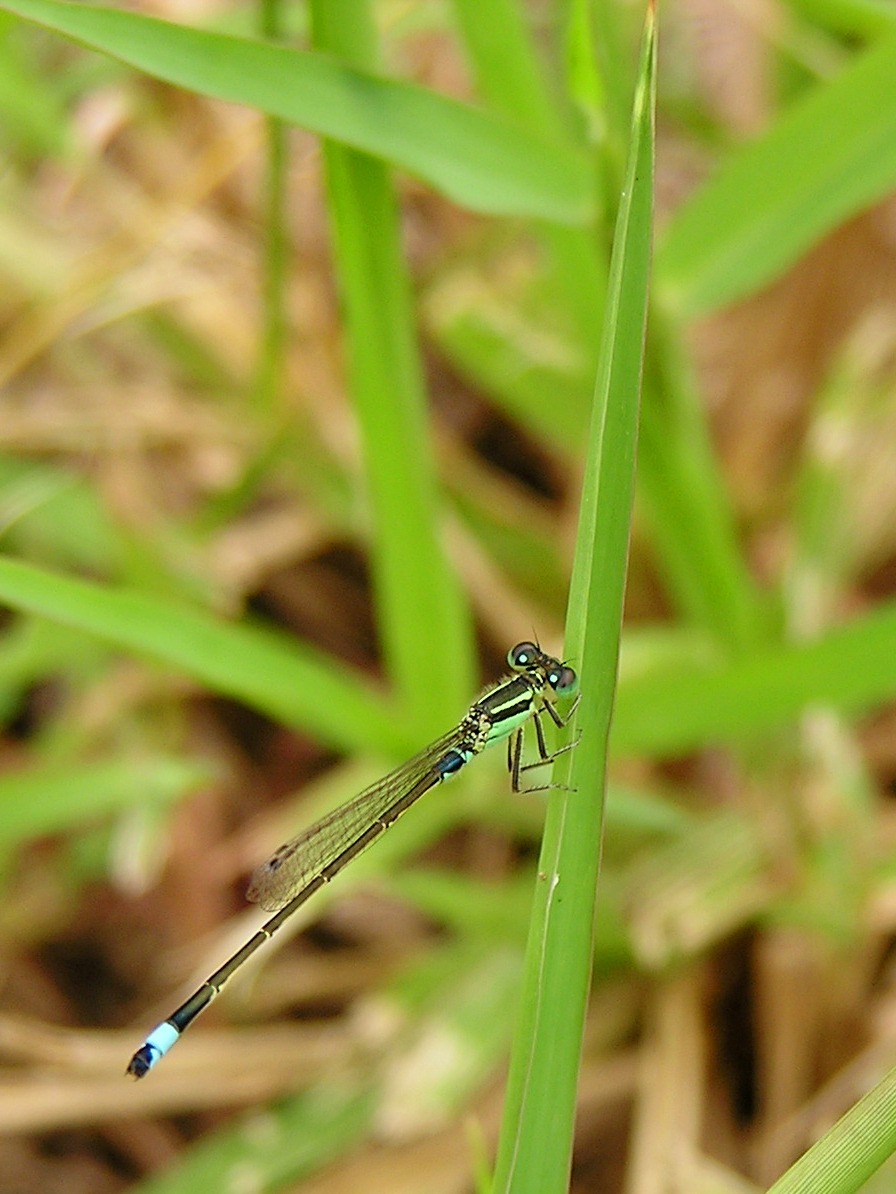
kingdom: Animalia
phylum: Arthropoda
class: Insecta
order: Odonata
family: Coenagrionidae
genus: Ischnura
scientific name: Ischnura senegalensis
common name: Tropical bluetail
